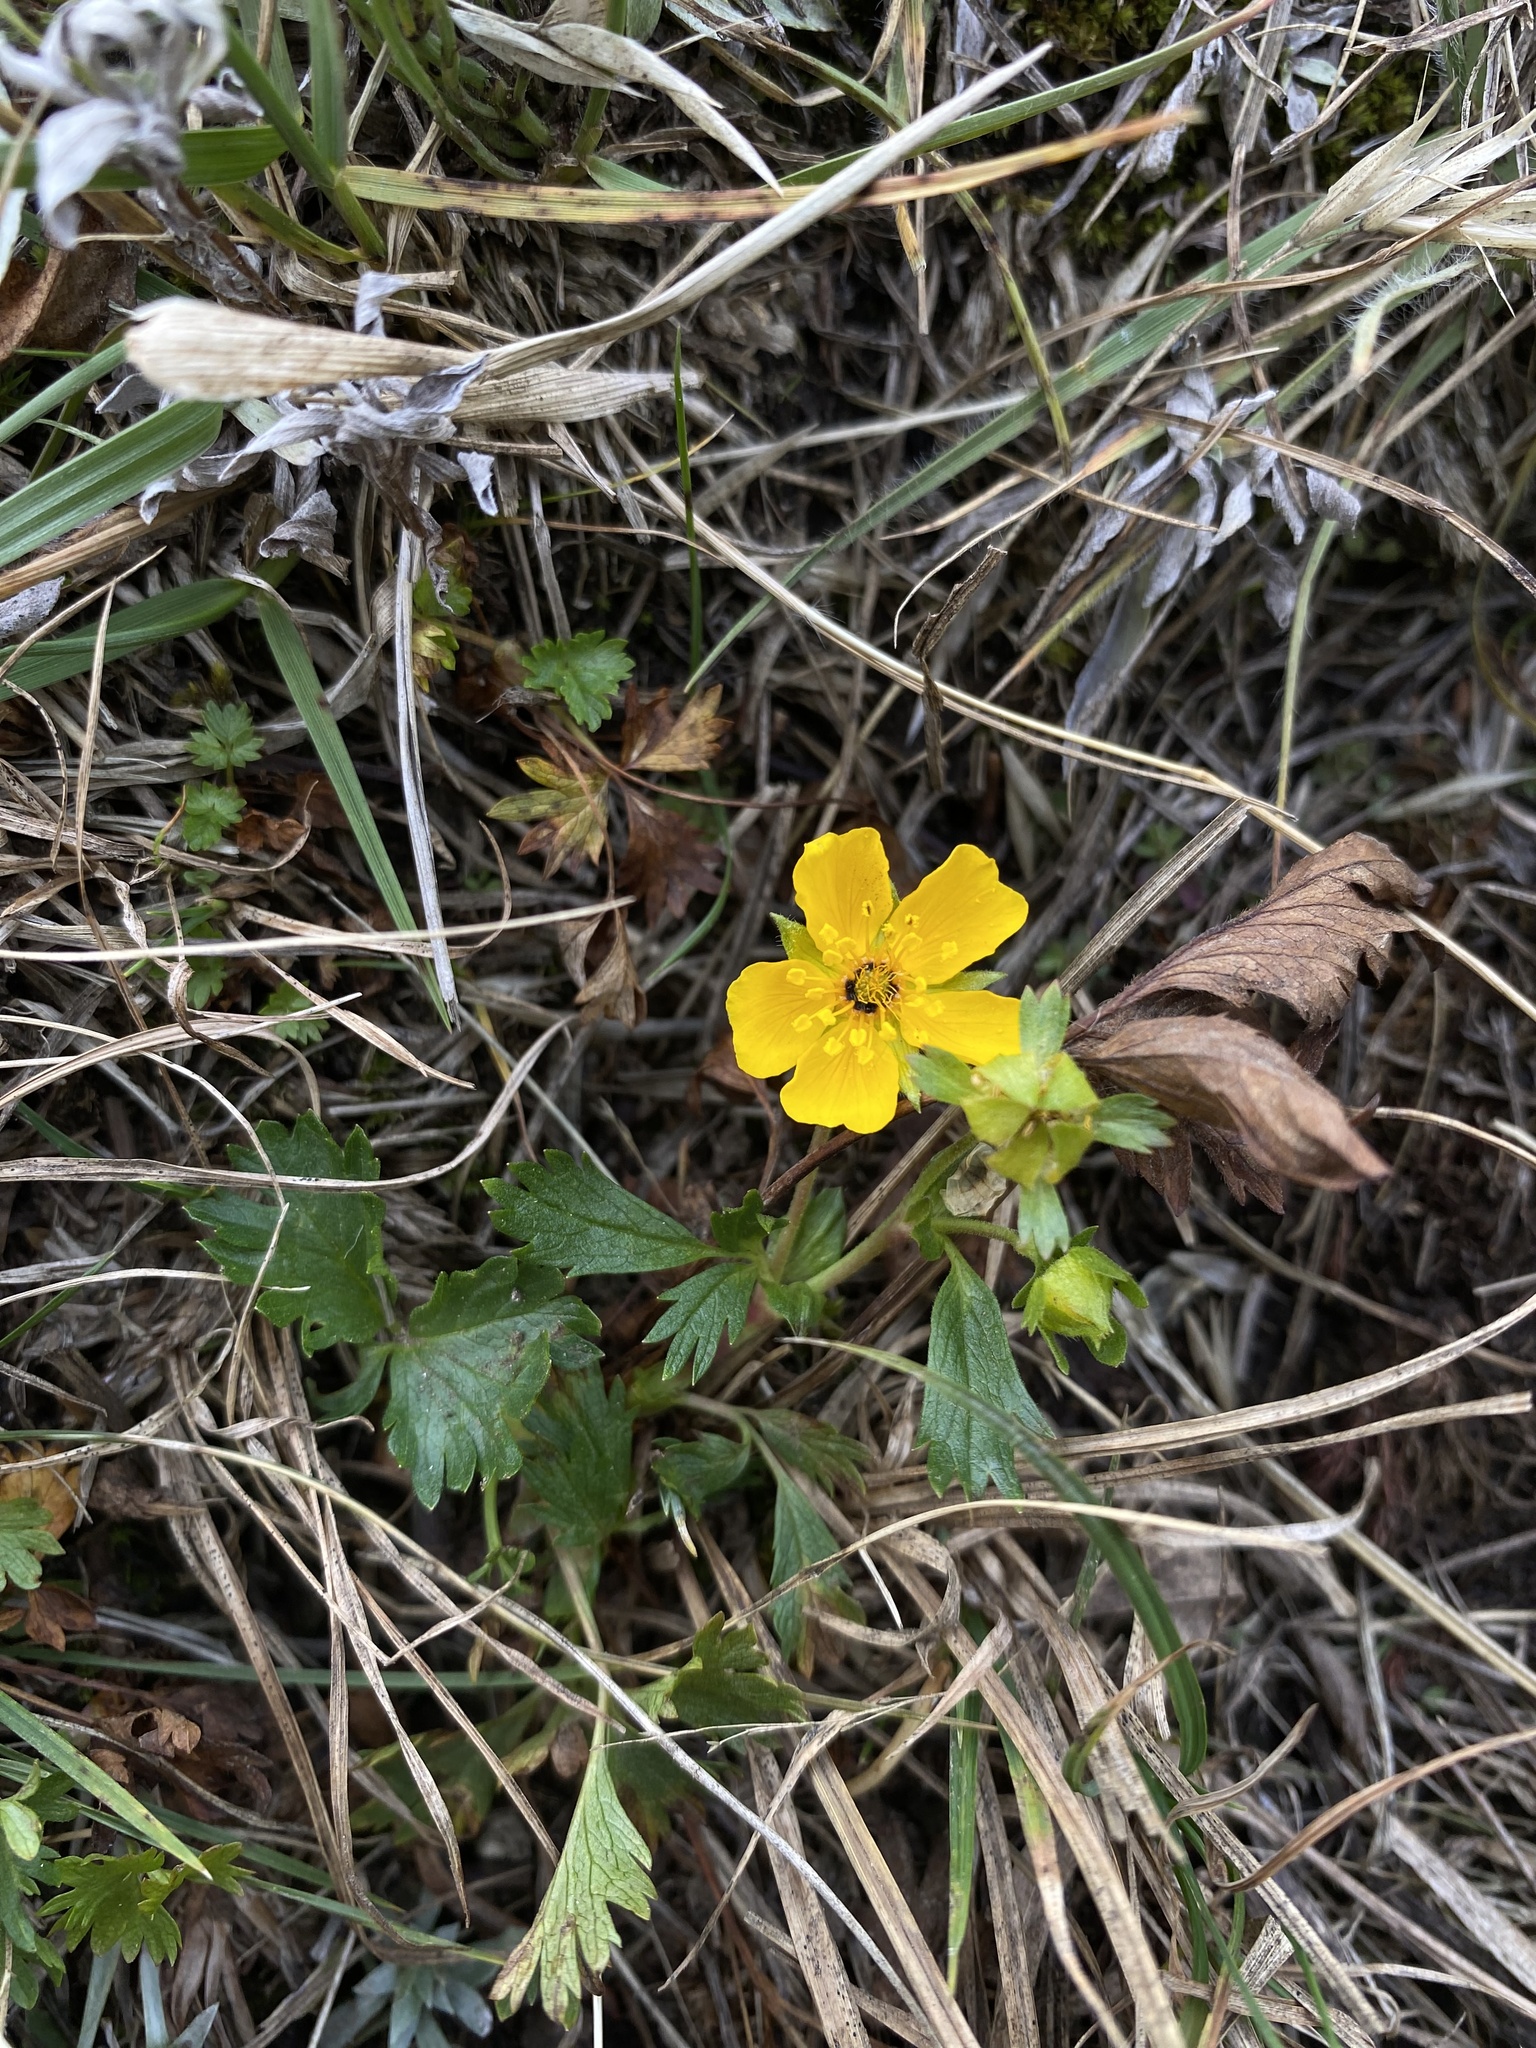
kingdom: Plantae
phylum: Tracheophyta
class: Magnoliopsida
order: Rosales
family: Rosaceae
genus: Potentilla
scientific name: Potentilla flabellifolia
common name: Mount rainier cinquefoil
